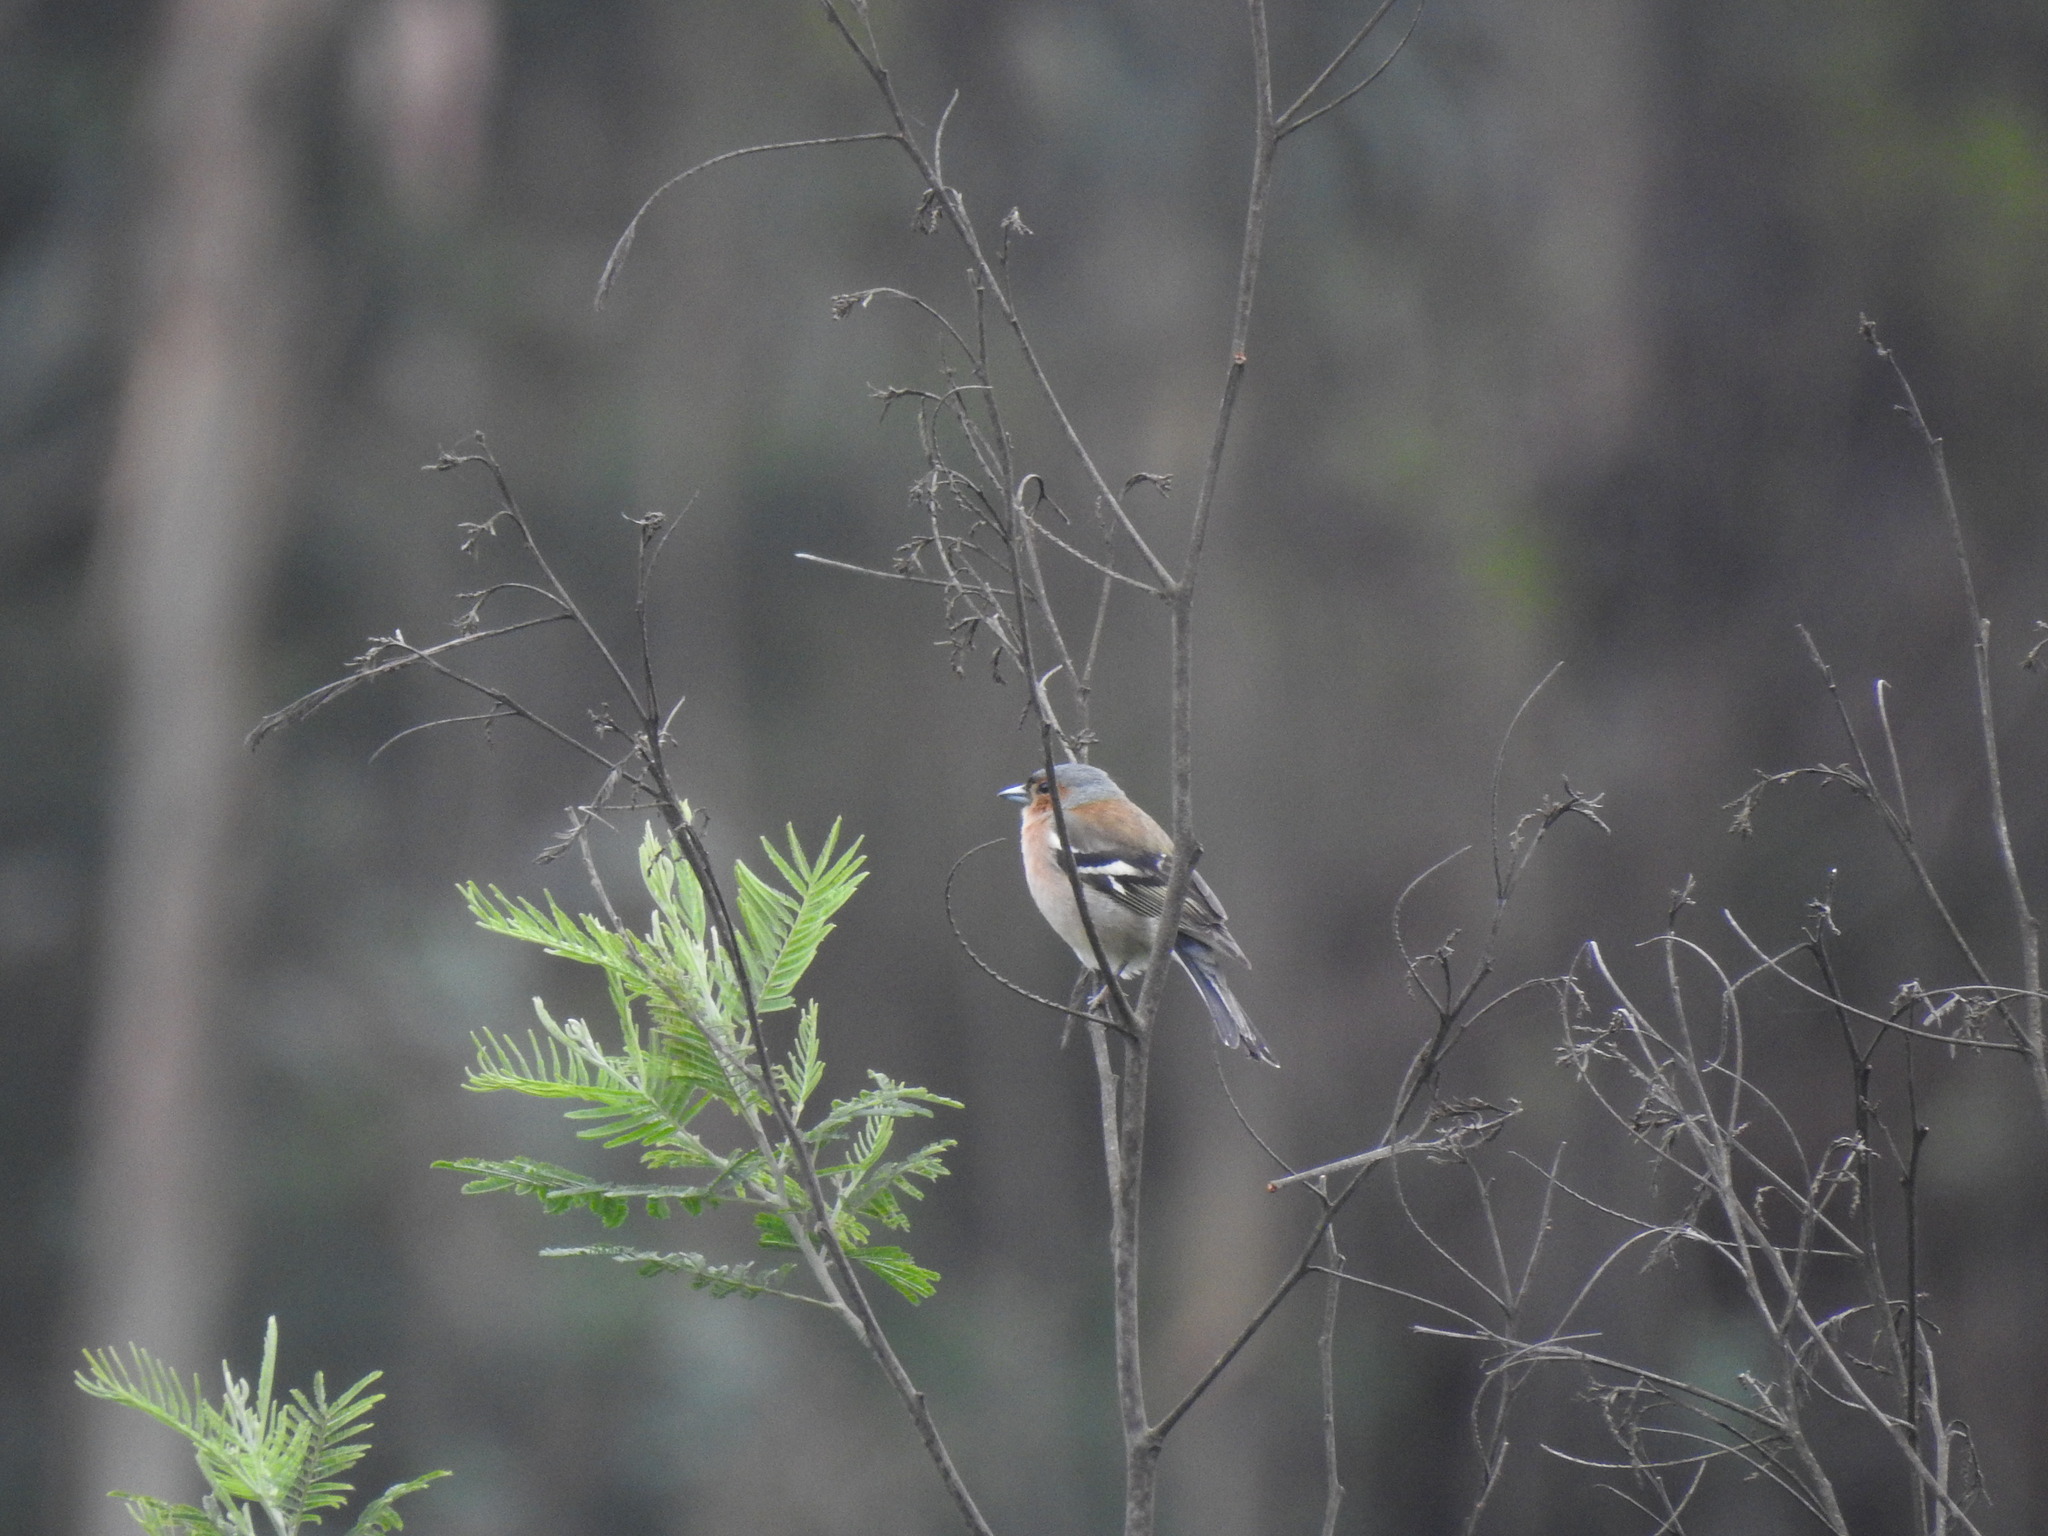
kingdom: Animalia
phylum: Chordata
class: Aves
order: Passeriformes
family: Fringillidae
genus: Fringilla
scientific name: Fringilla coelebs
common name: Common chaffinch
